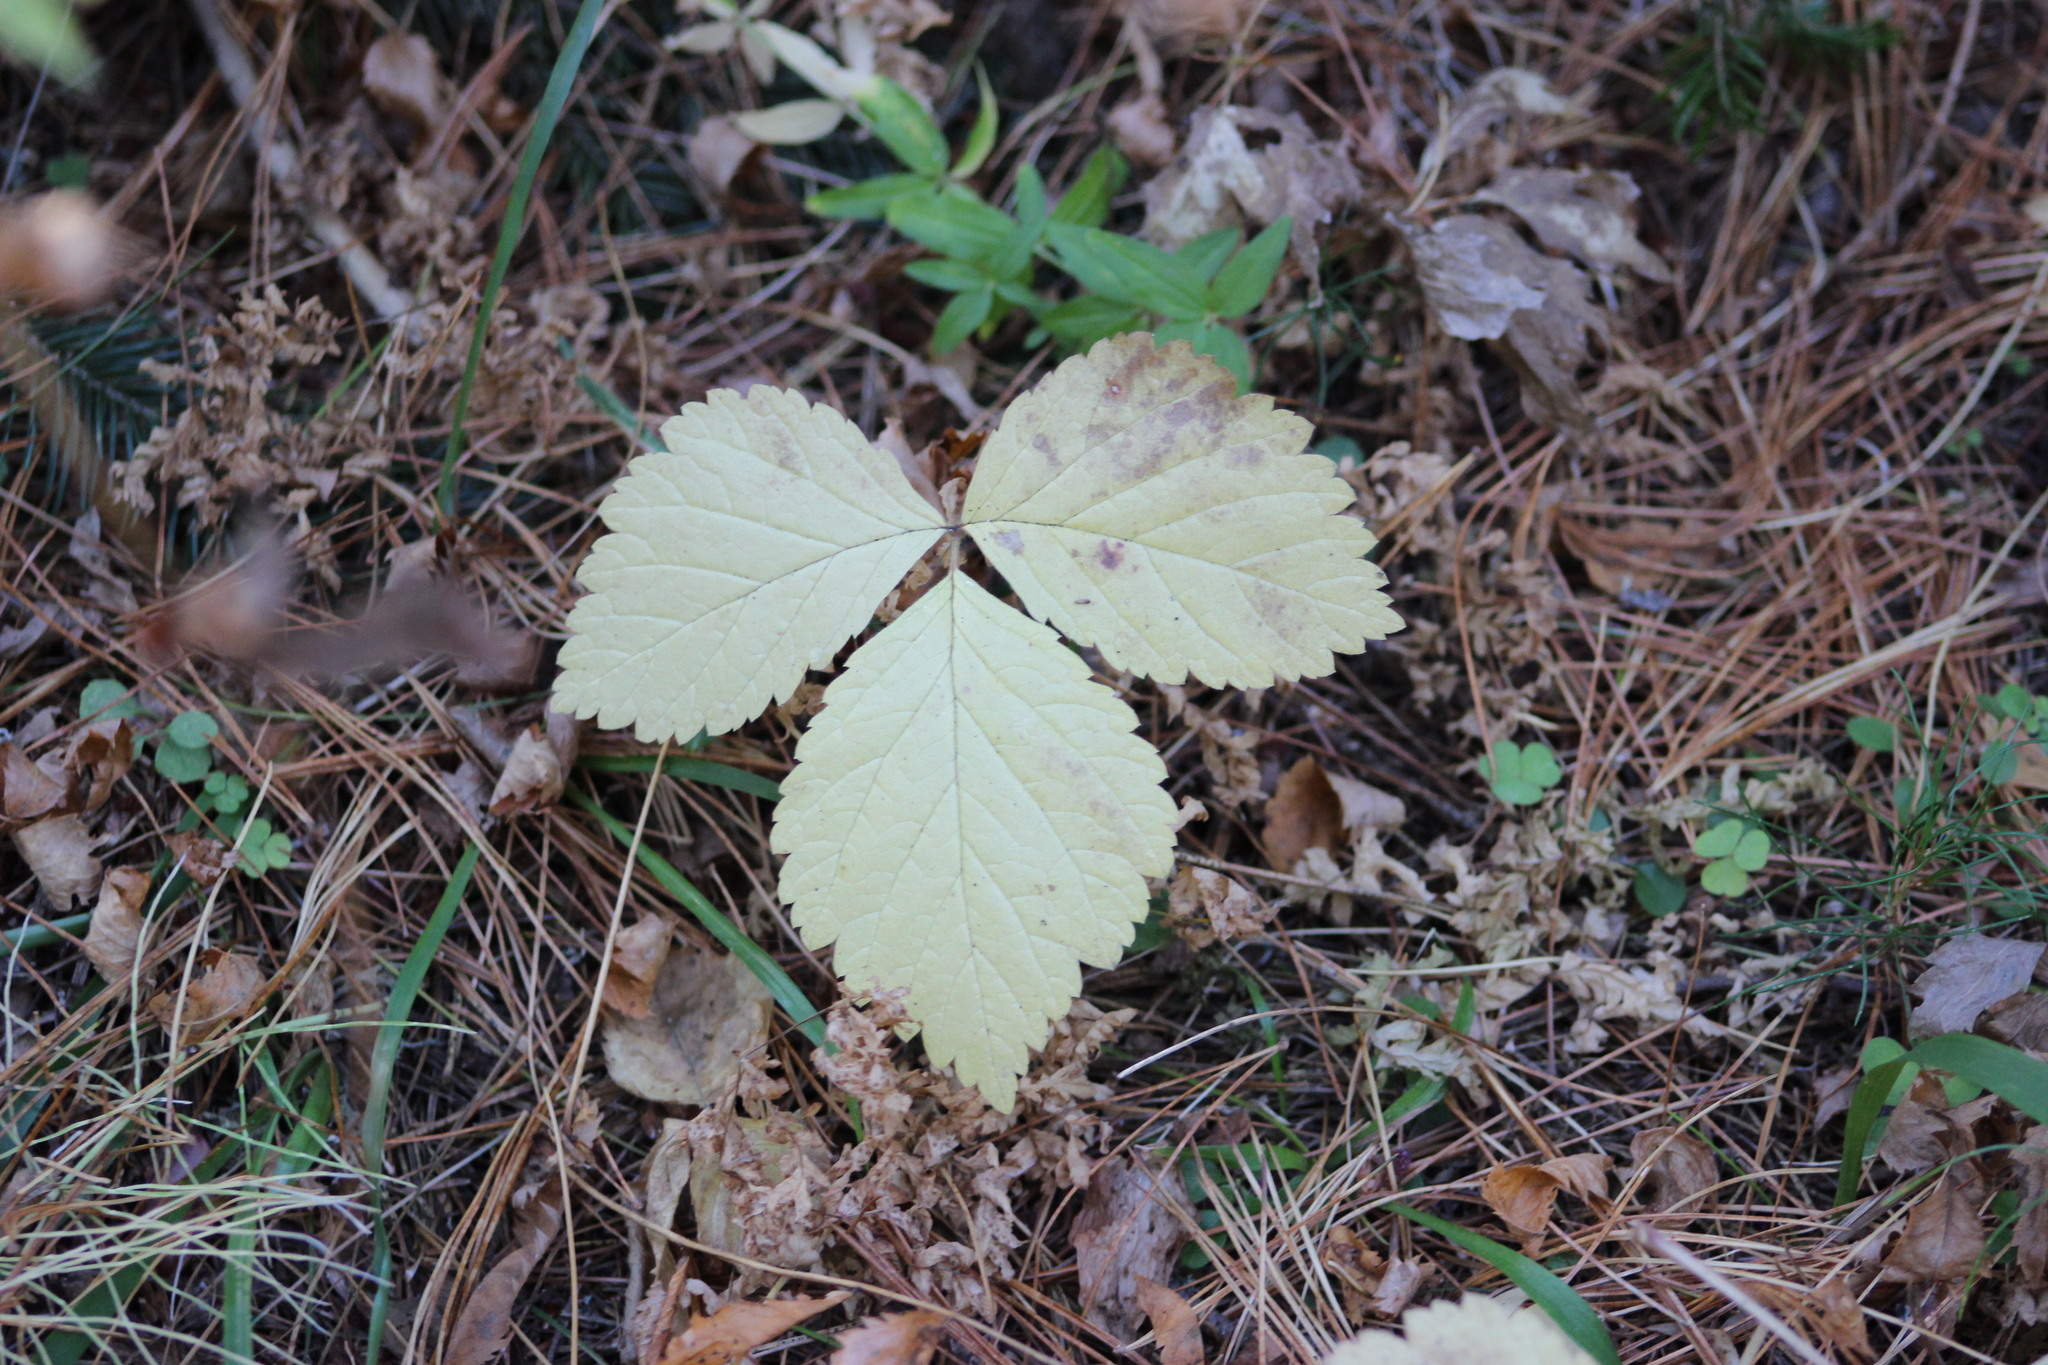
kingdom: Plantae
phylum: Tracheophyta
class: Magnoliopsida
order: Rosales
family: Rosaceae
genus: Rubus
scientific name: Rubus saxatilis
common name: Stone bramble
